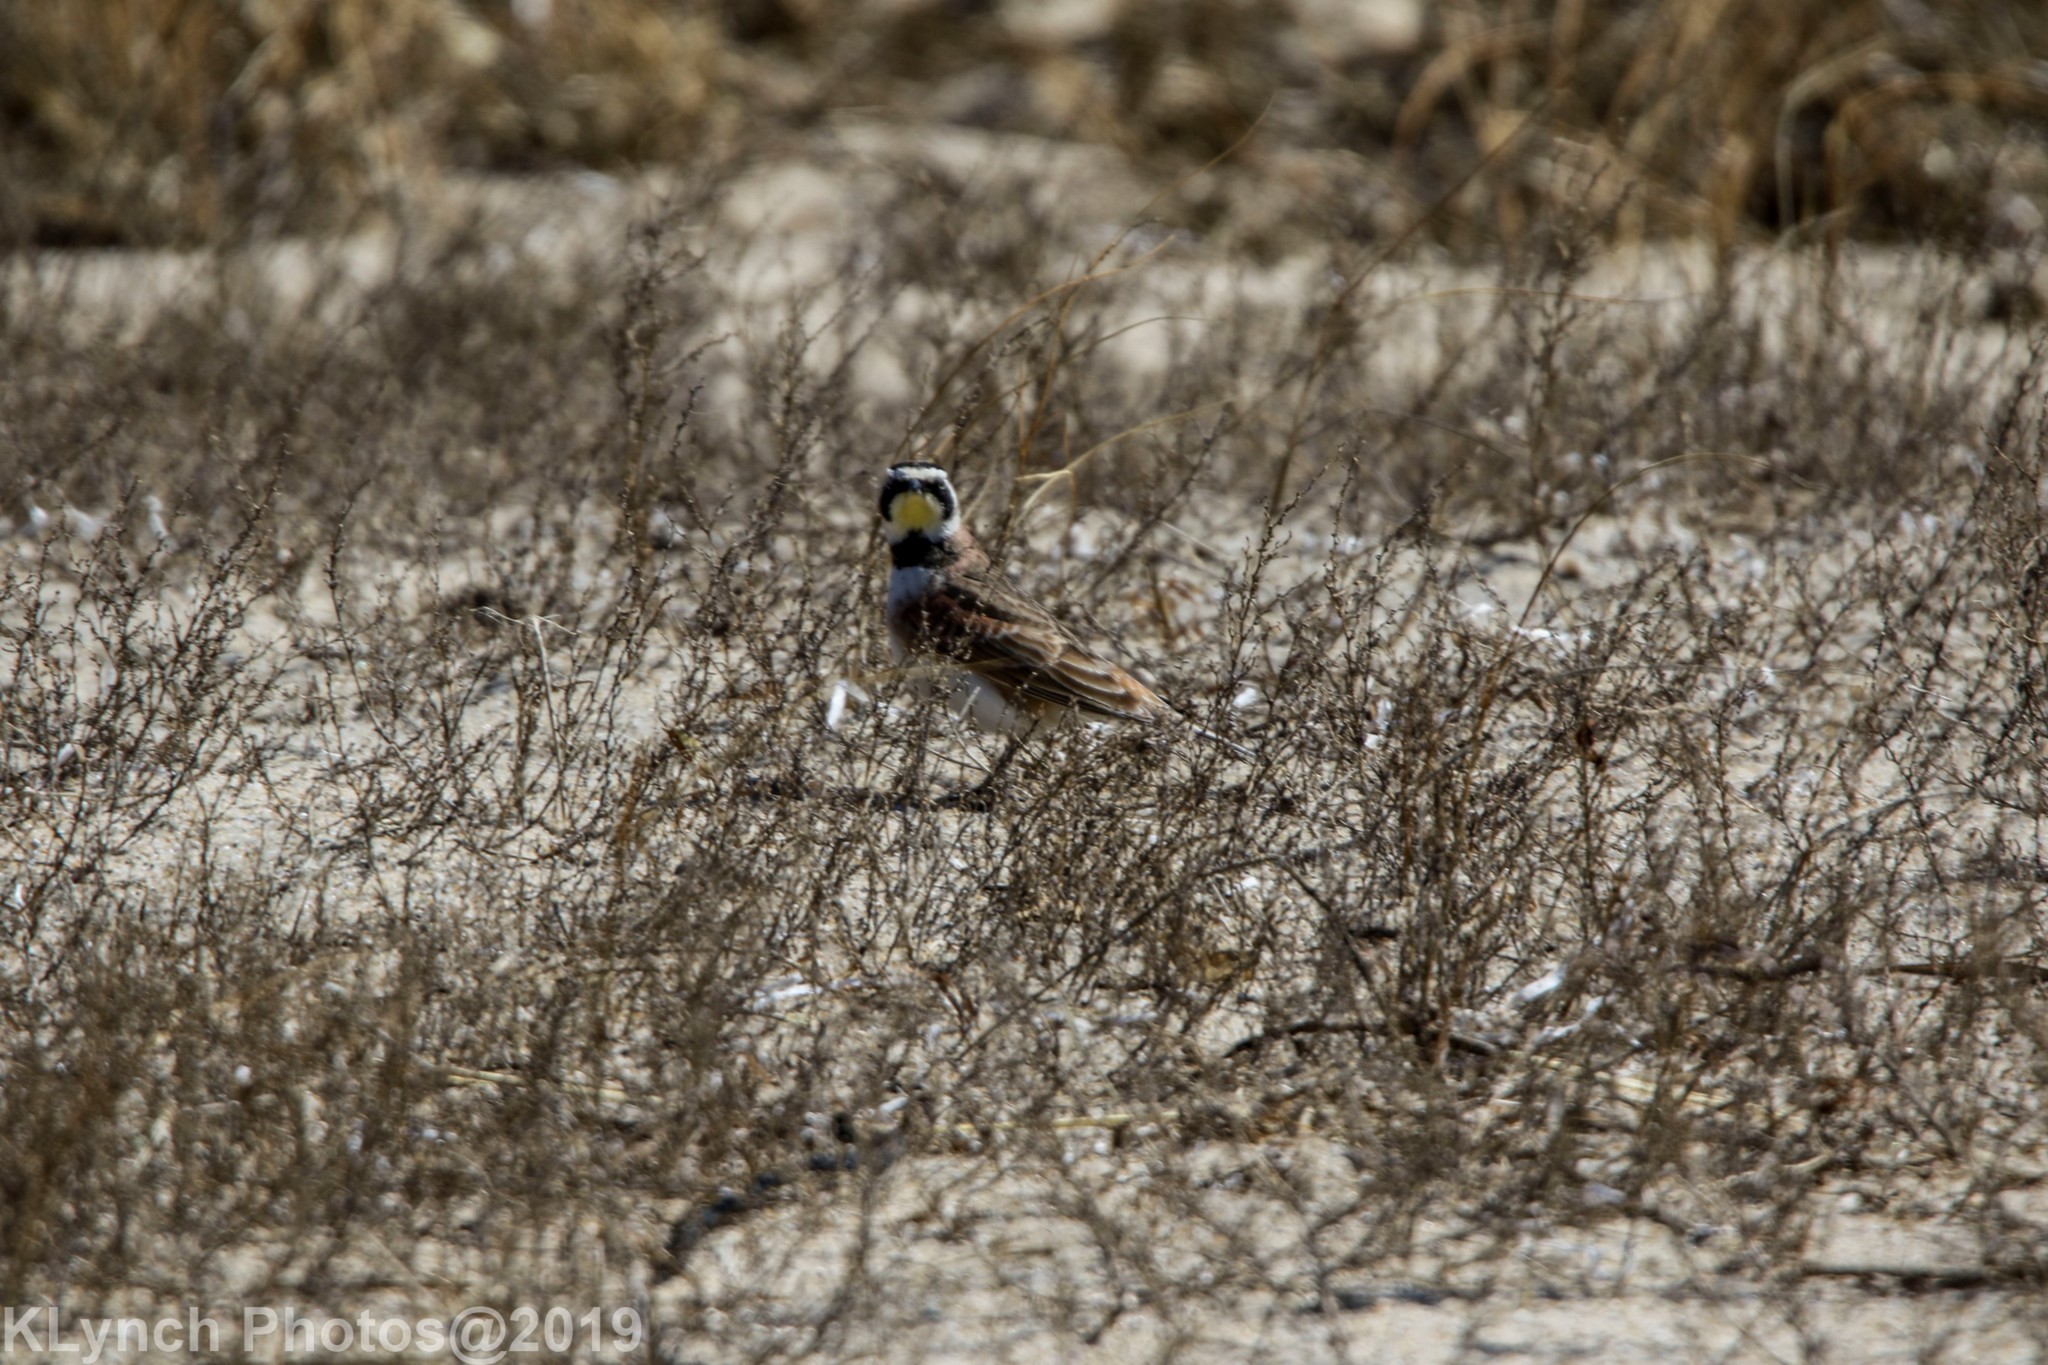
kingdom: Animalia
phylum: Chordata
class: Aves
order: Passeriformes
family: Alaudidae
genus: Eremophila
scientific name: Eremophila alpestris
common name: Horned lark
